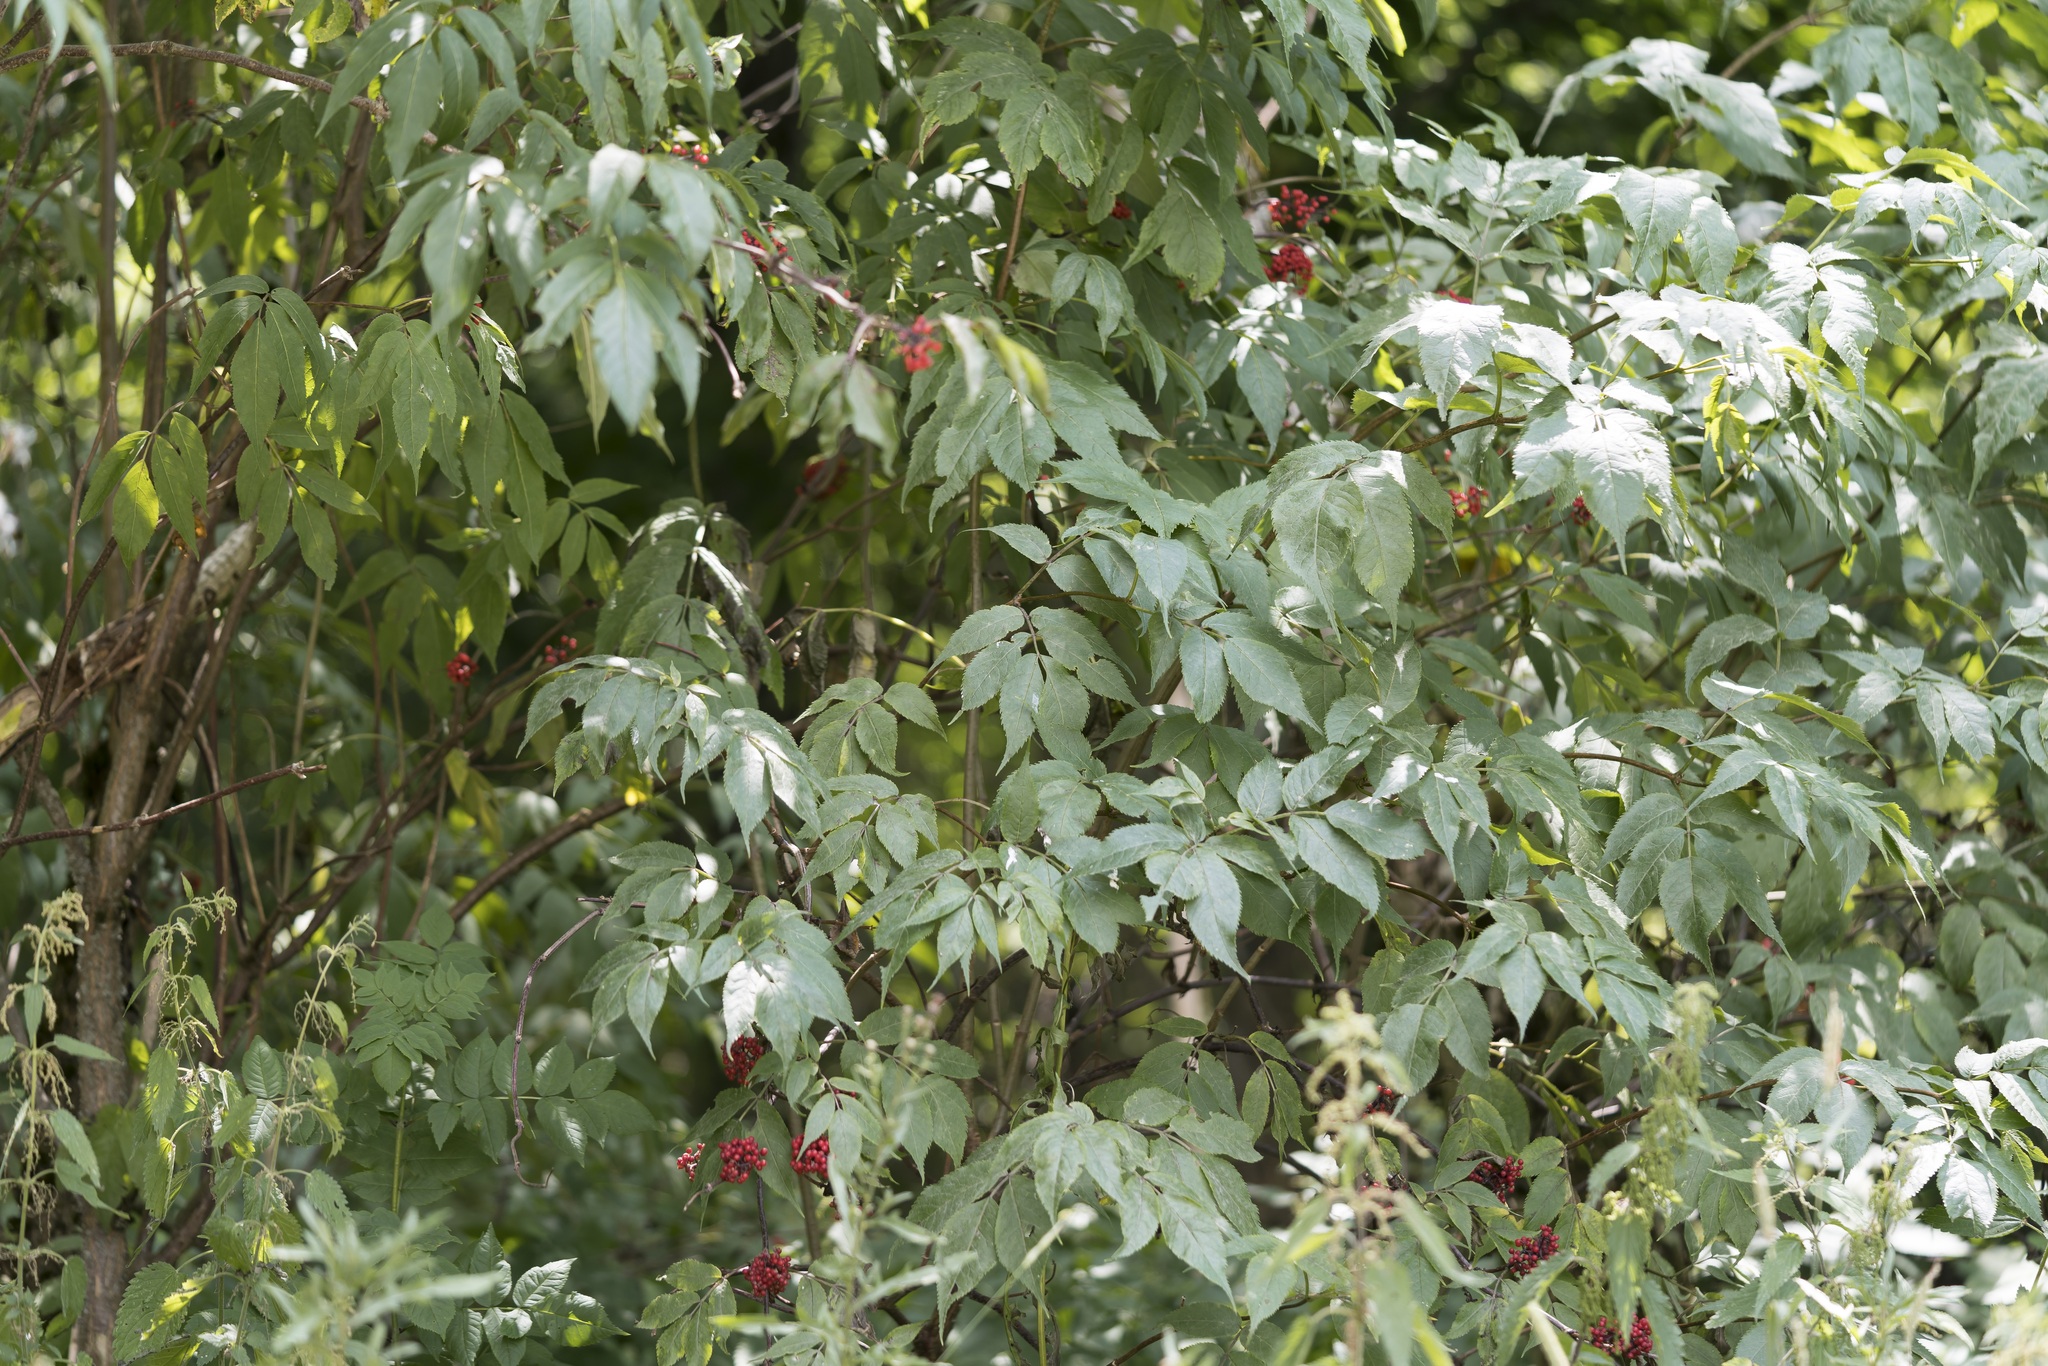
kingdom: Plantae
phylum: Tracheophyta
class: Magnoliopsida
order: Dipsacales
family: Viburnaceae
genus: Sambucus
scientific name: Sambucus racemosa
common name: Red-berried elder
